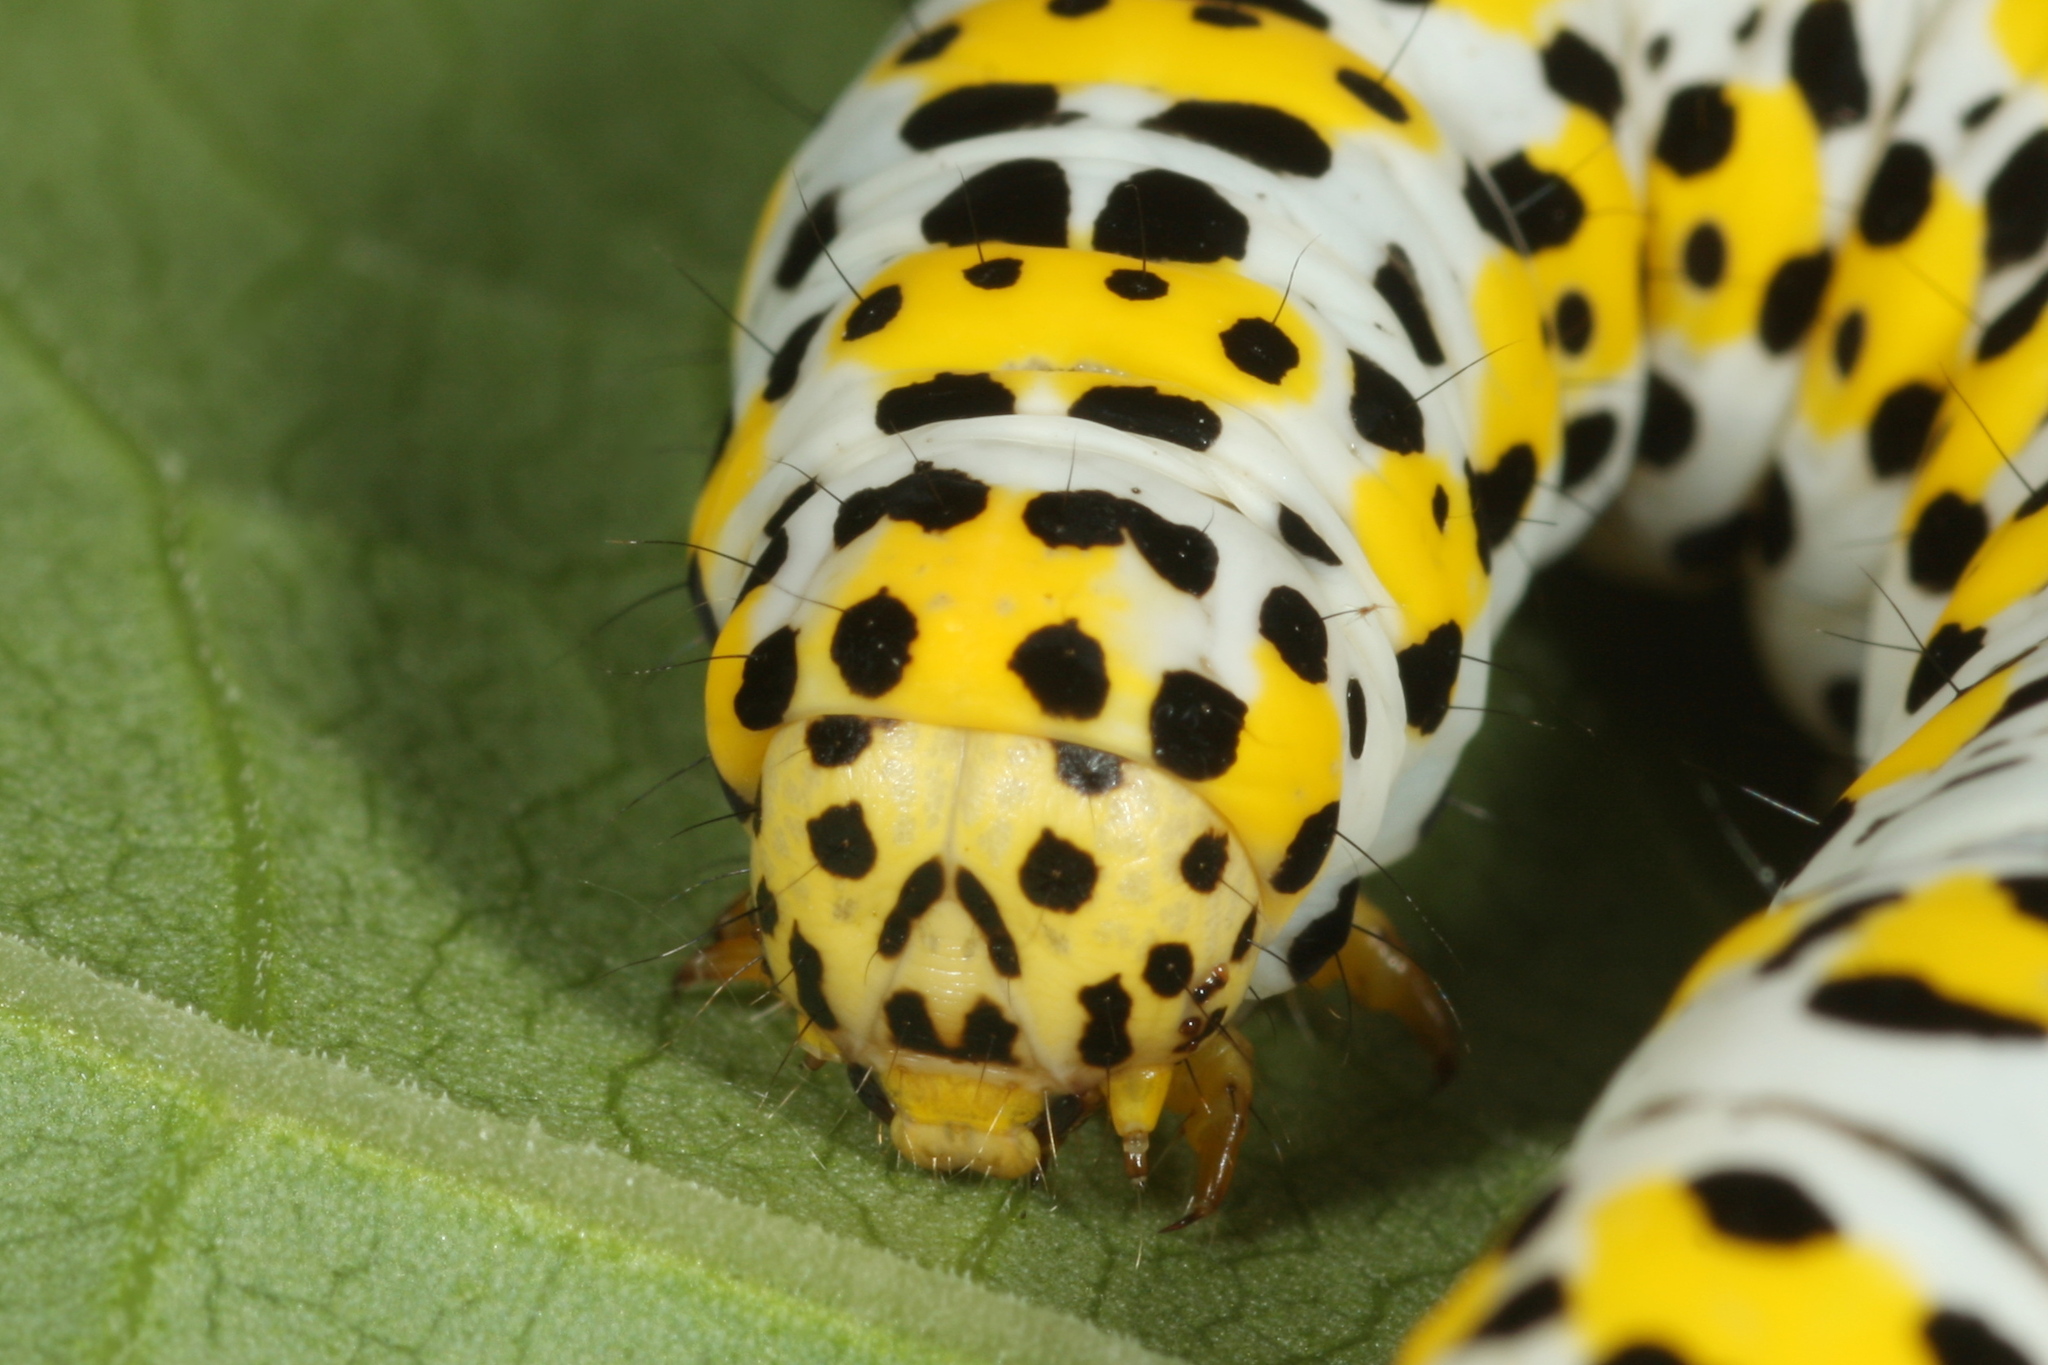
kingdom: Animalia
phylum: Arthropoda
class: Insecta
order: Lepidoptera
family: Noctuidae
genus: Cucullia
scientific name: Cucullia verbasci
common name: Mullein
